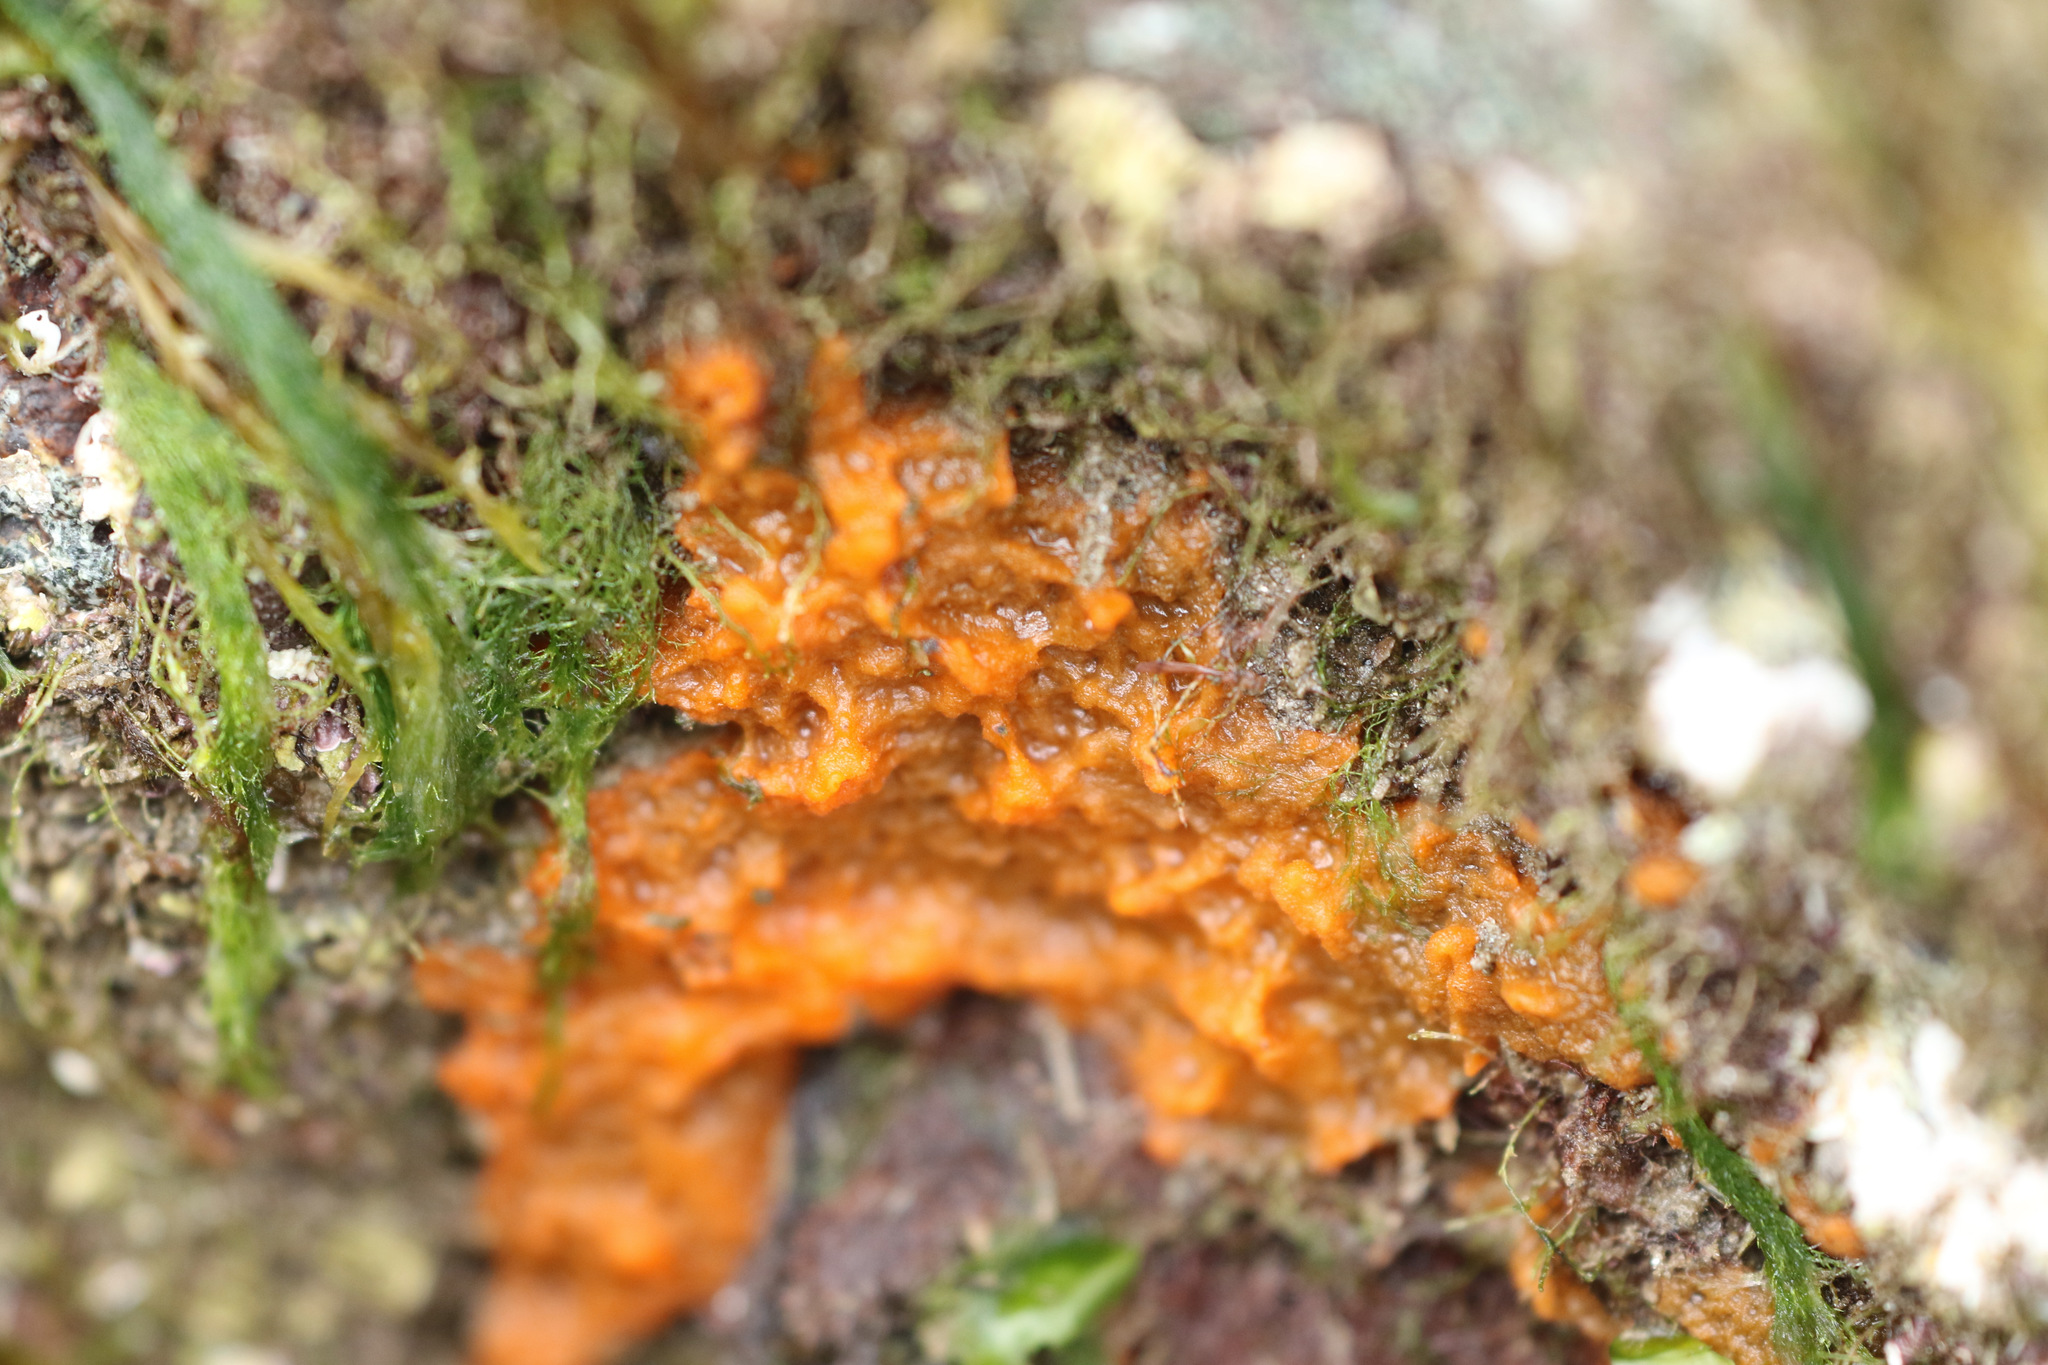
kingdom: Animalia
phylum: Porifera
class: Demospongiae
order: Suberitida
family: Halichondriidae
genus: Hymeniacidon
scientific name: Hymeniacidon perlevis
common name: Crumb-of-bread sponge
